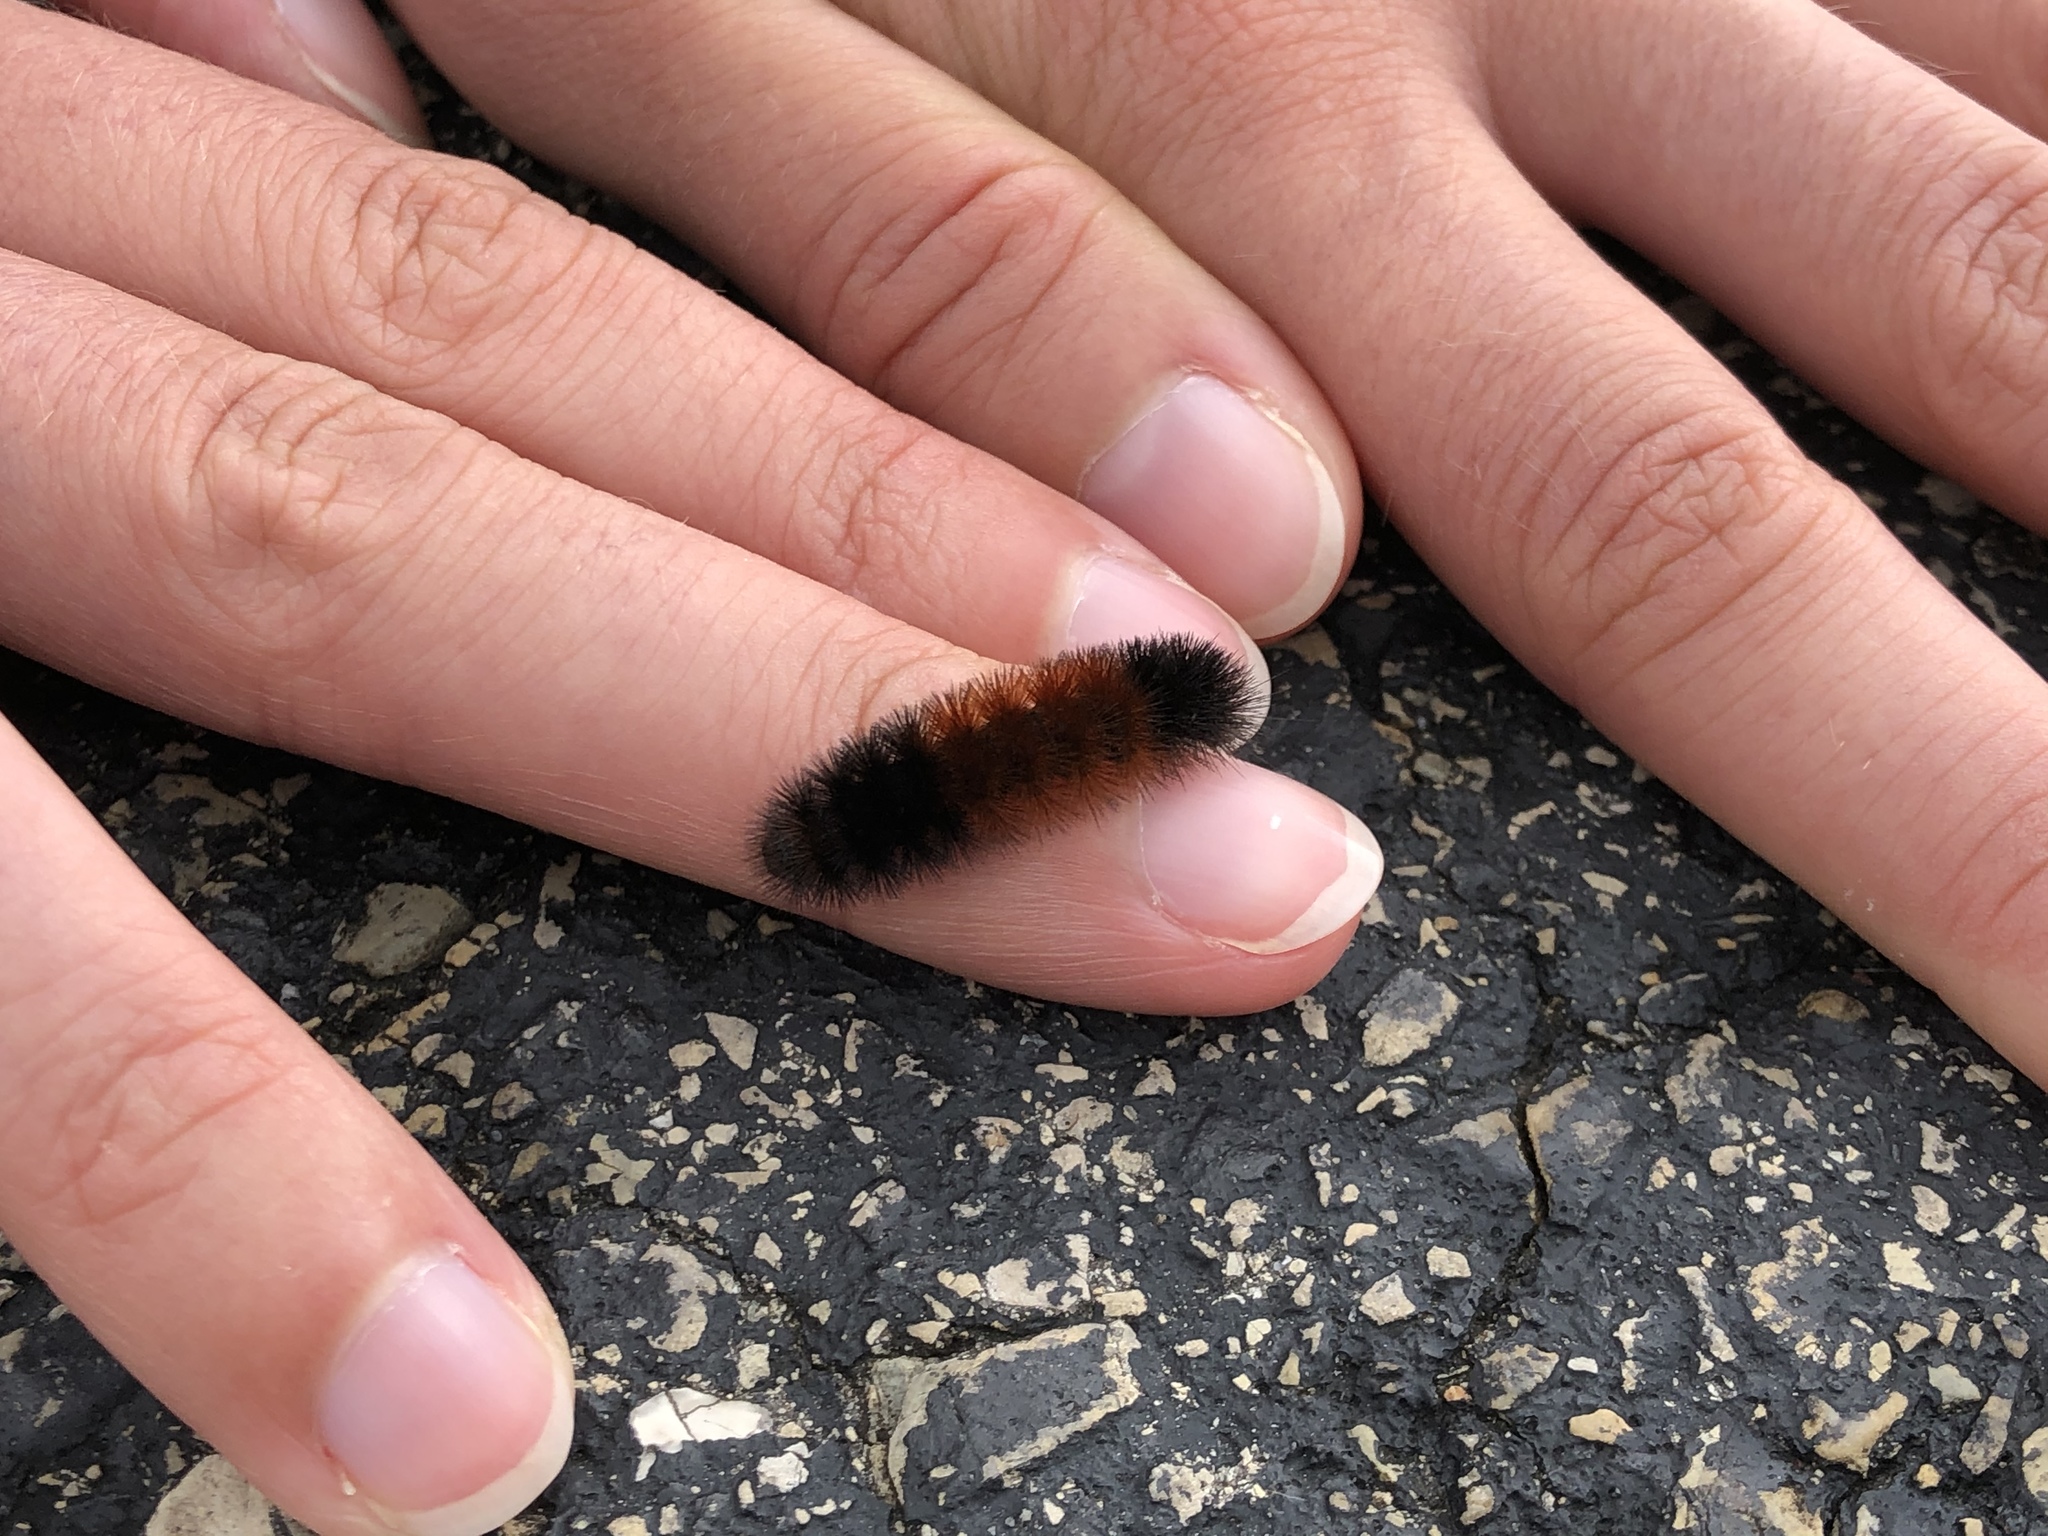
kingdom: Animalia
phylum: Arthropoda
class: Insecta
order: Lepidoptera
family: Erebidae
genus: Pyrrharctia
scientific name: Pyrrharctia isabella
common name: Isabella tiger moth
